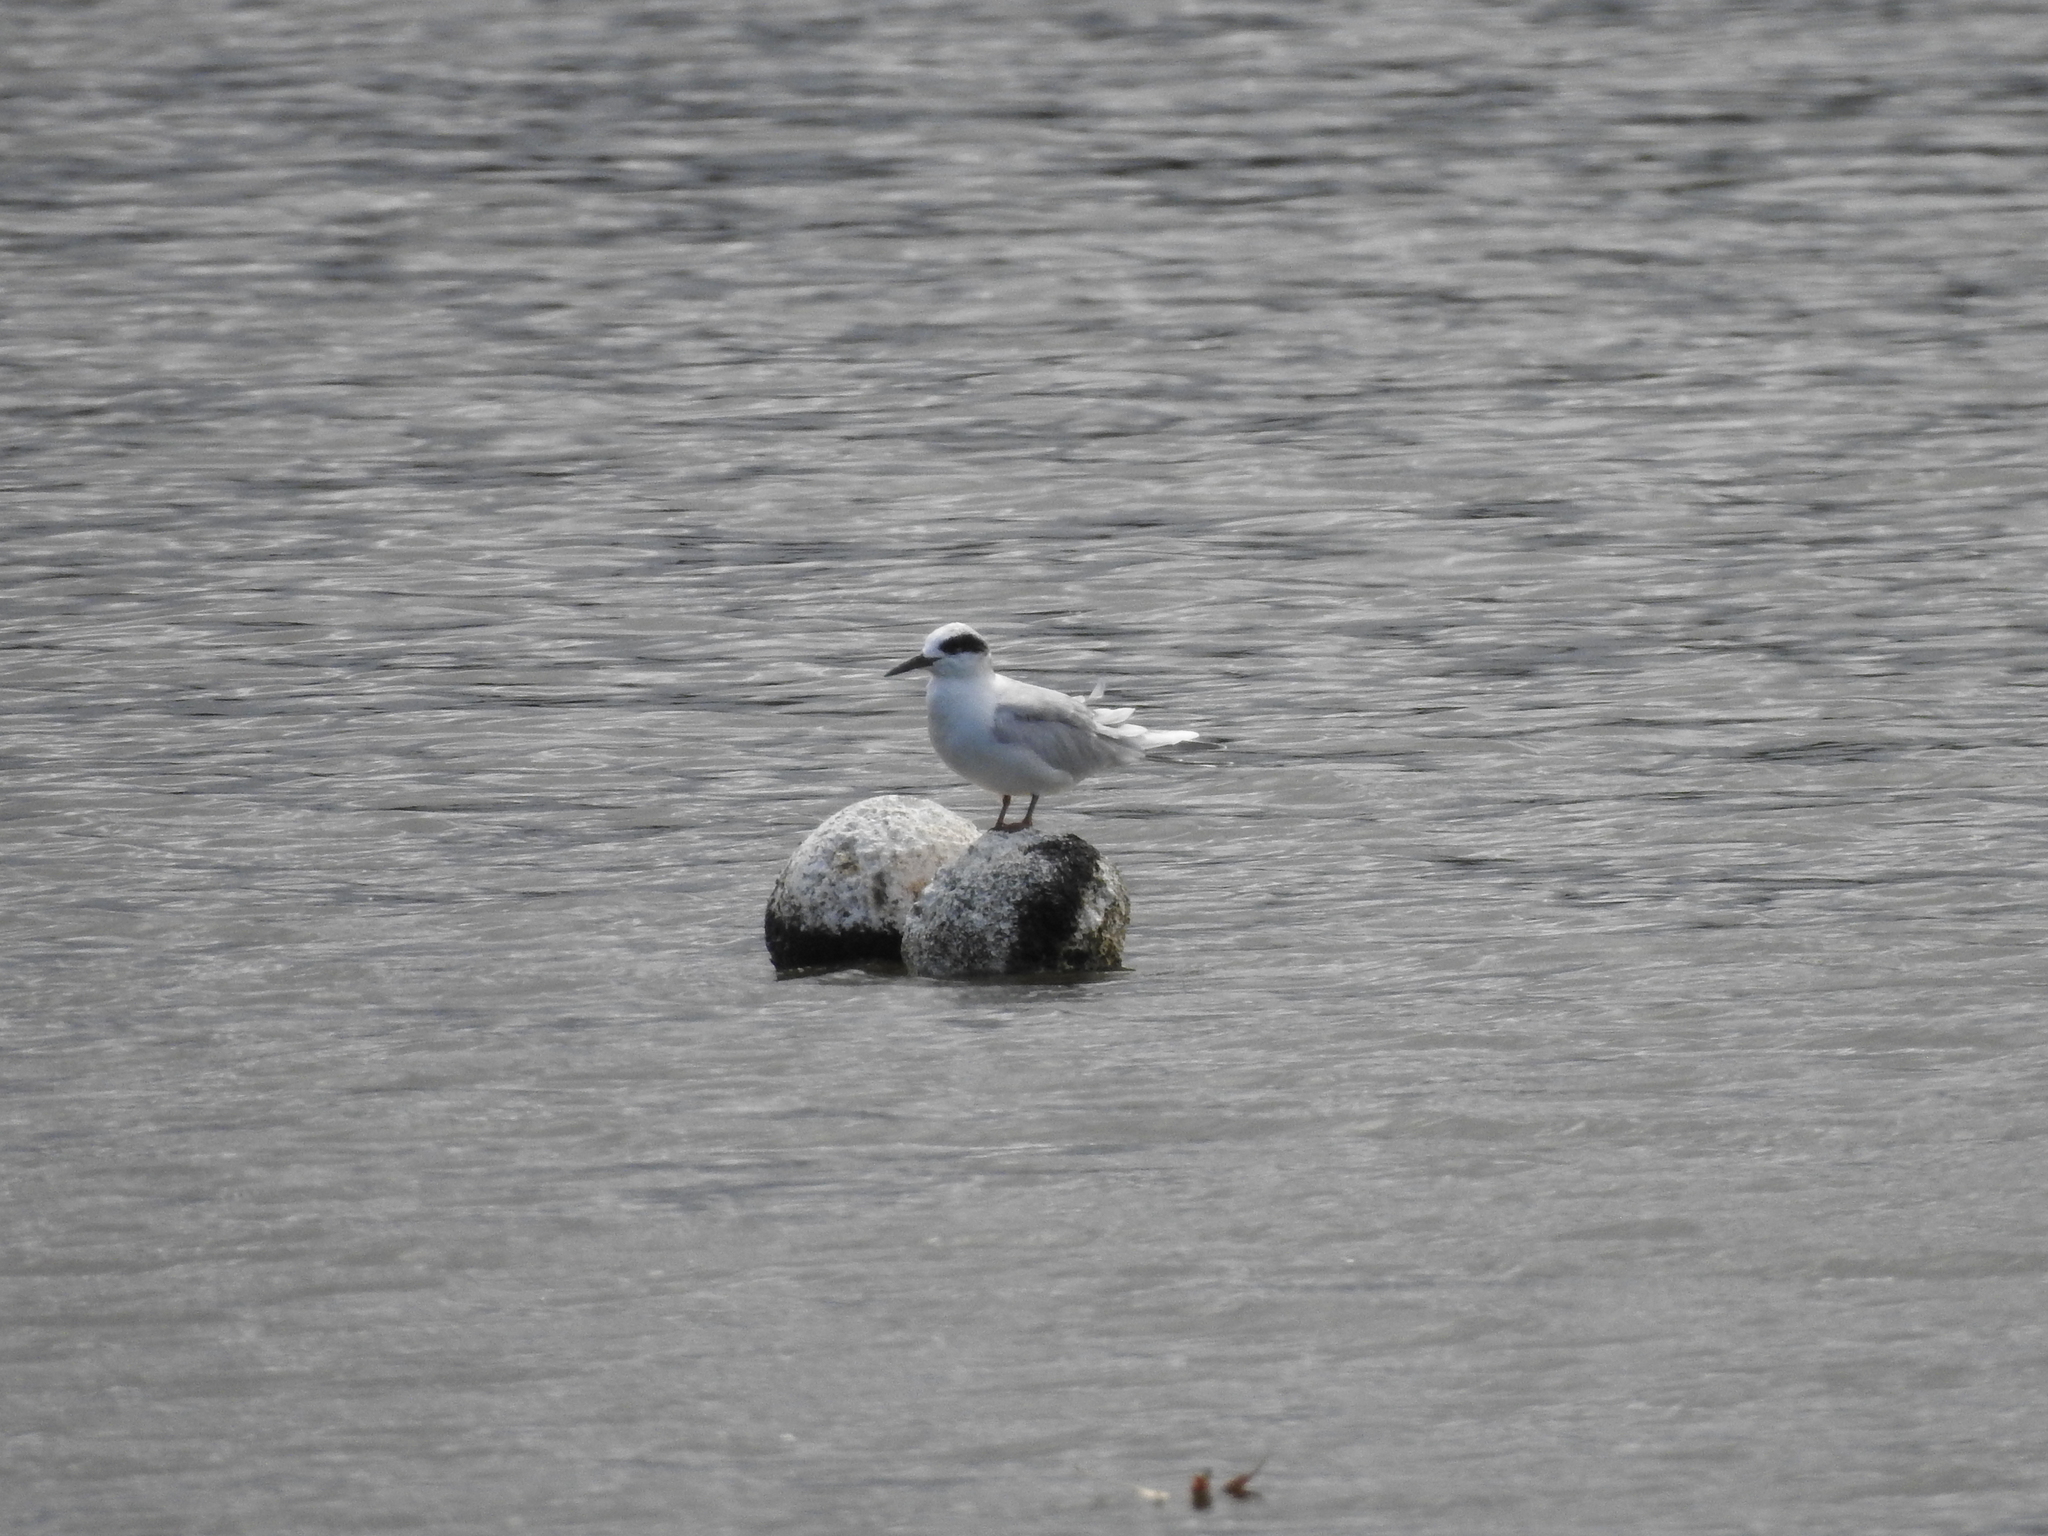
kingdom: Animalia
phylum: Chordata
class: Aves
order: Charadriiformes
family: Laridae
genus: Sterna
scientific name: Sterna forsteri
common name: Forster's tern
